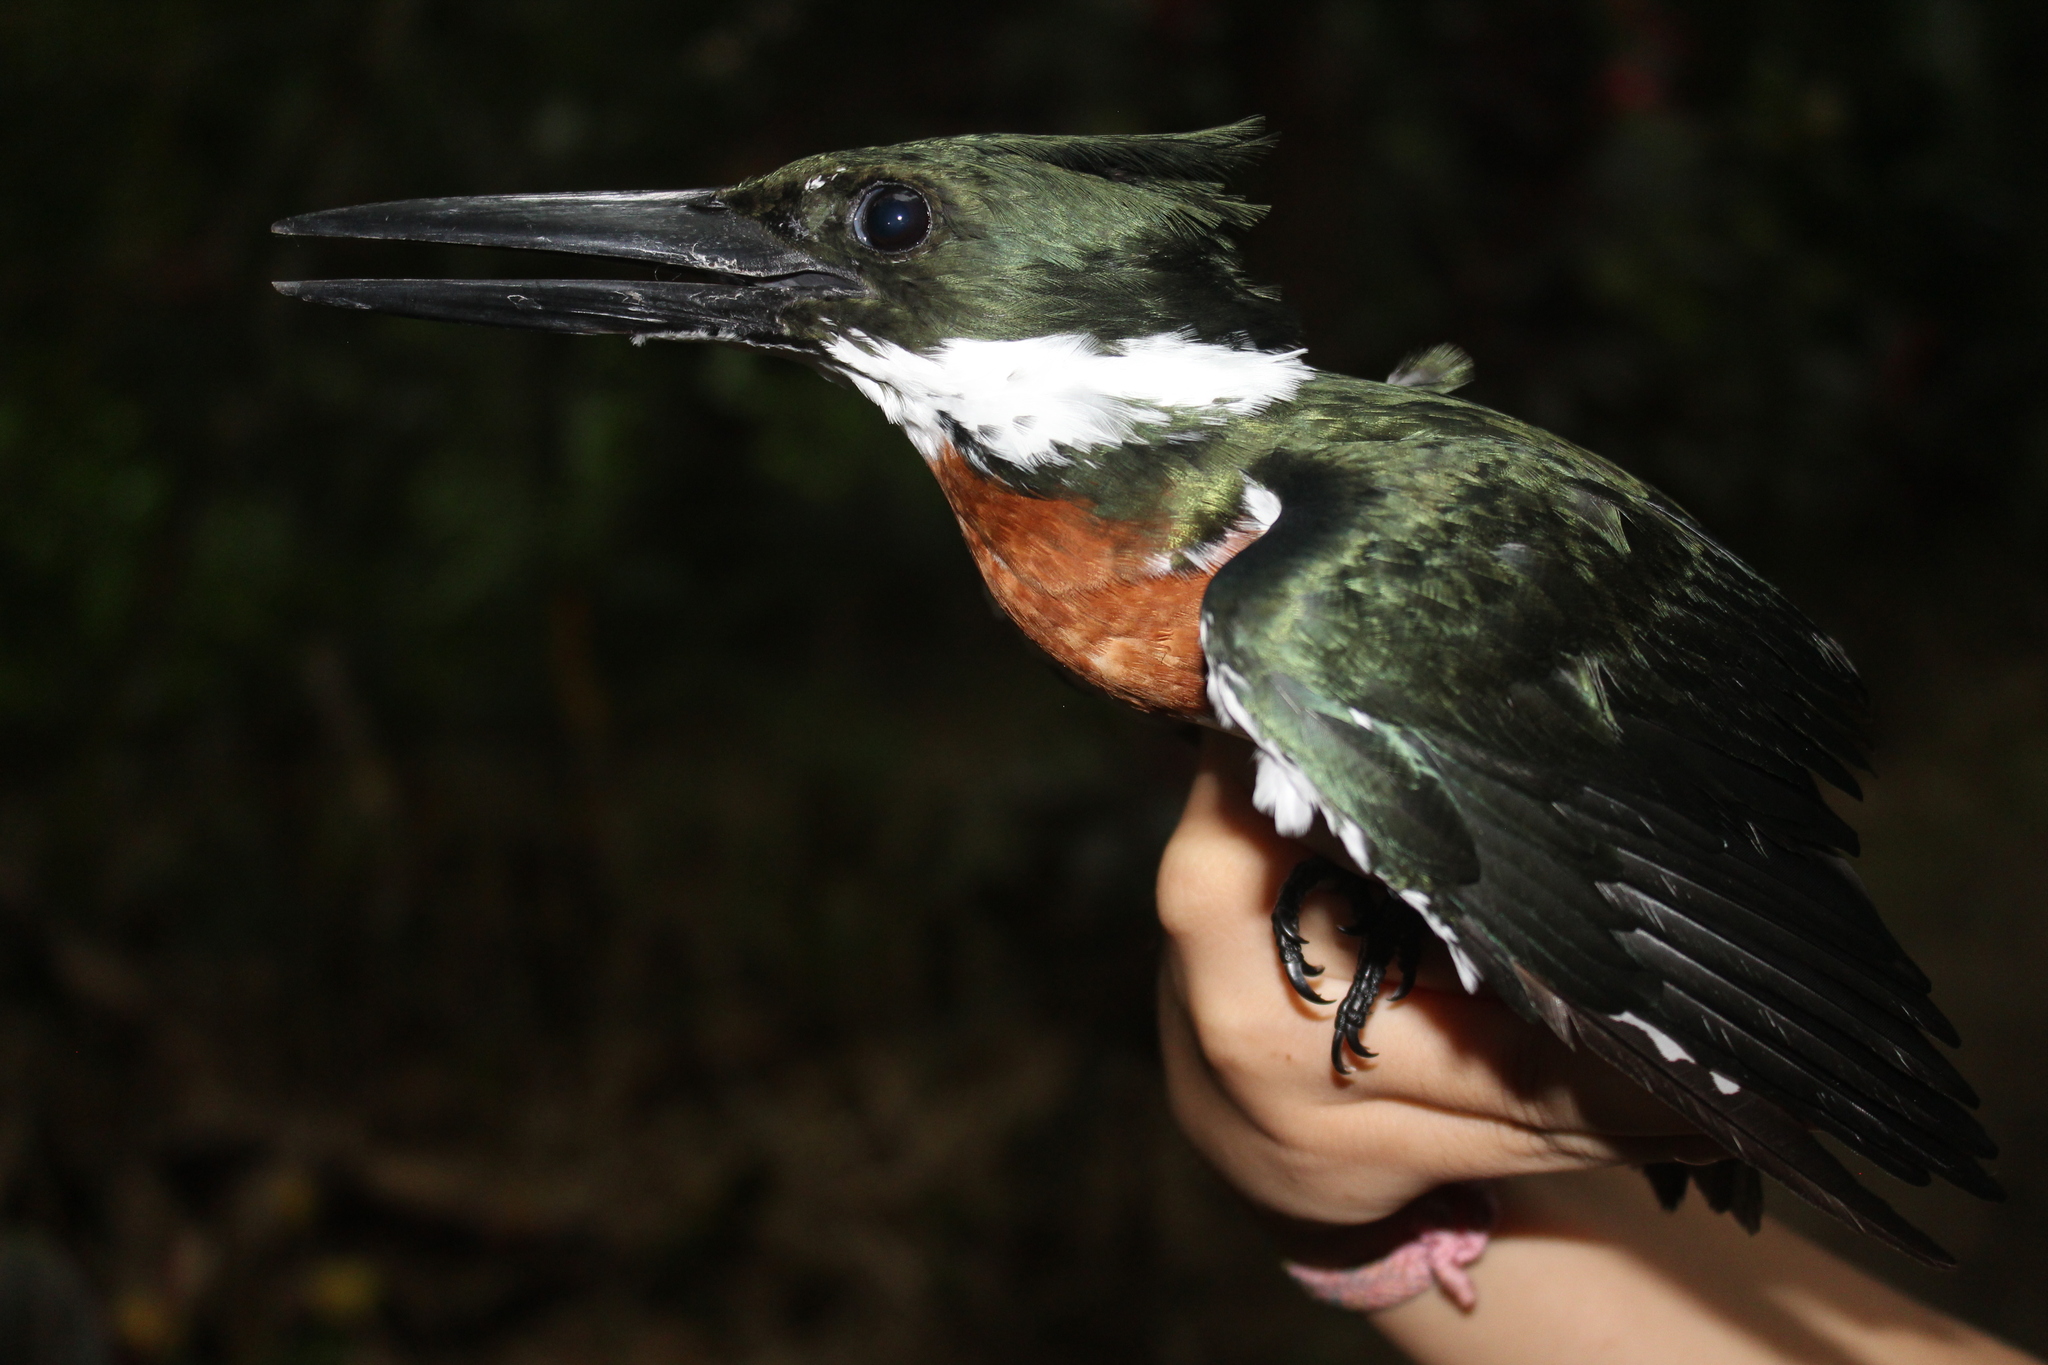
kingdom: Animalia
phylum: Chordata
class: Aves
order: Coraciiformes
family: Alcedinidae
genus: Chloroceryle
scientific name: Chloroceryle amazona
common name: Amazon kingfisher
